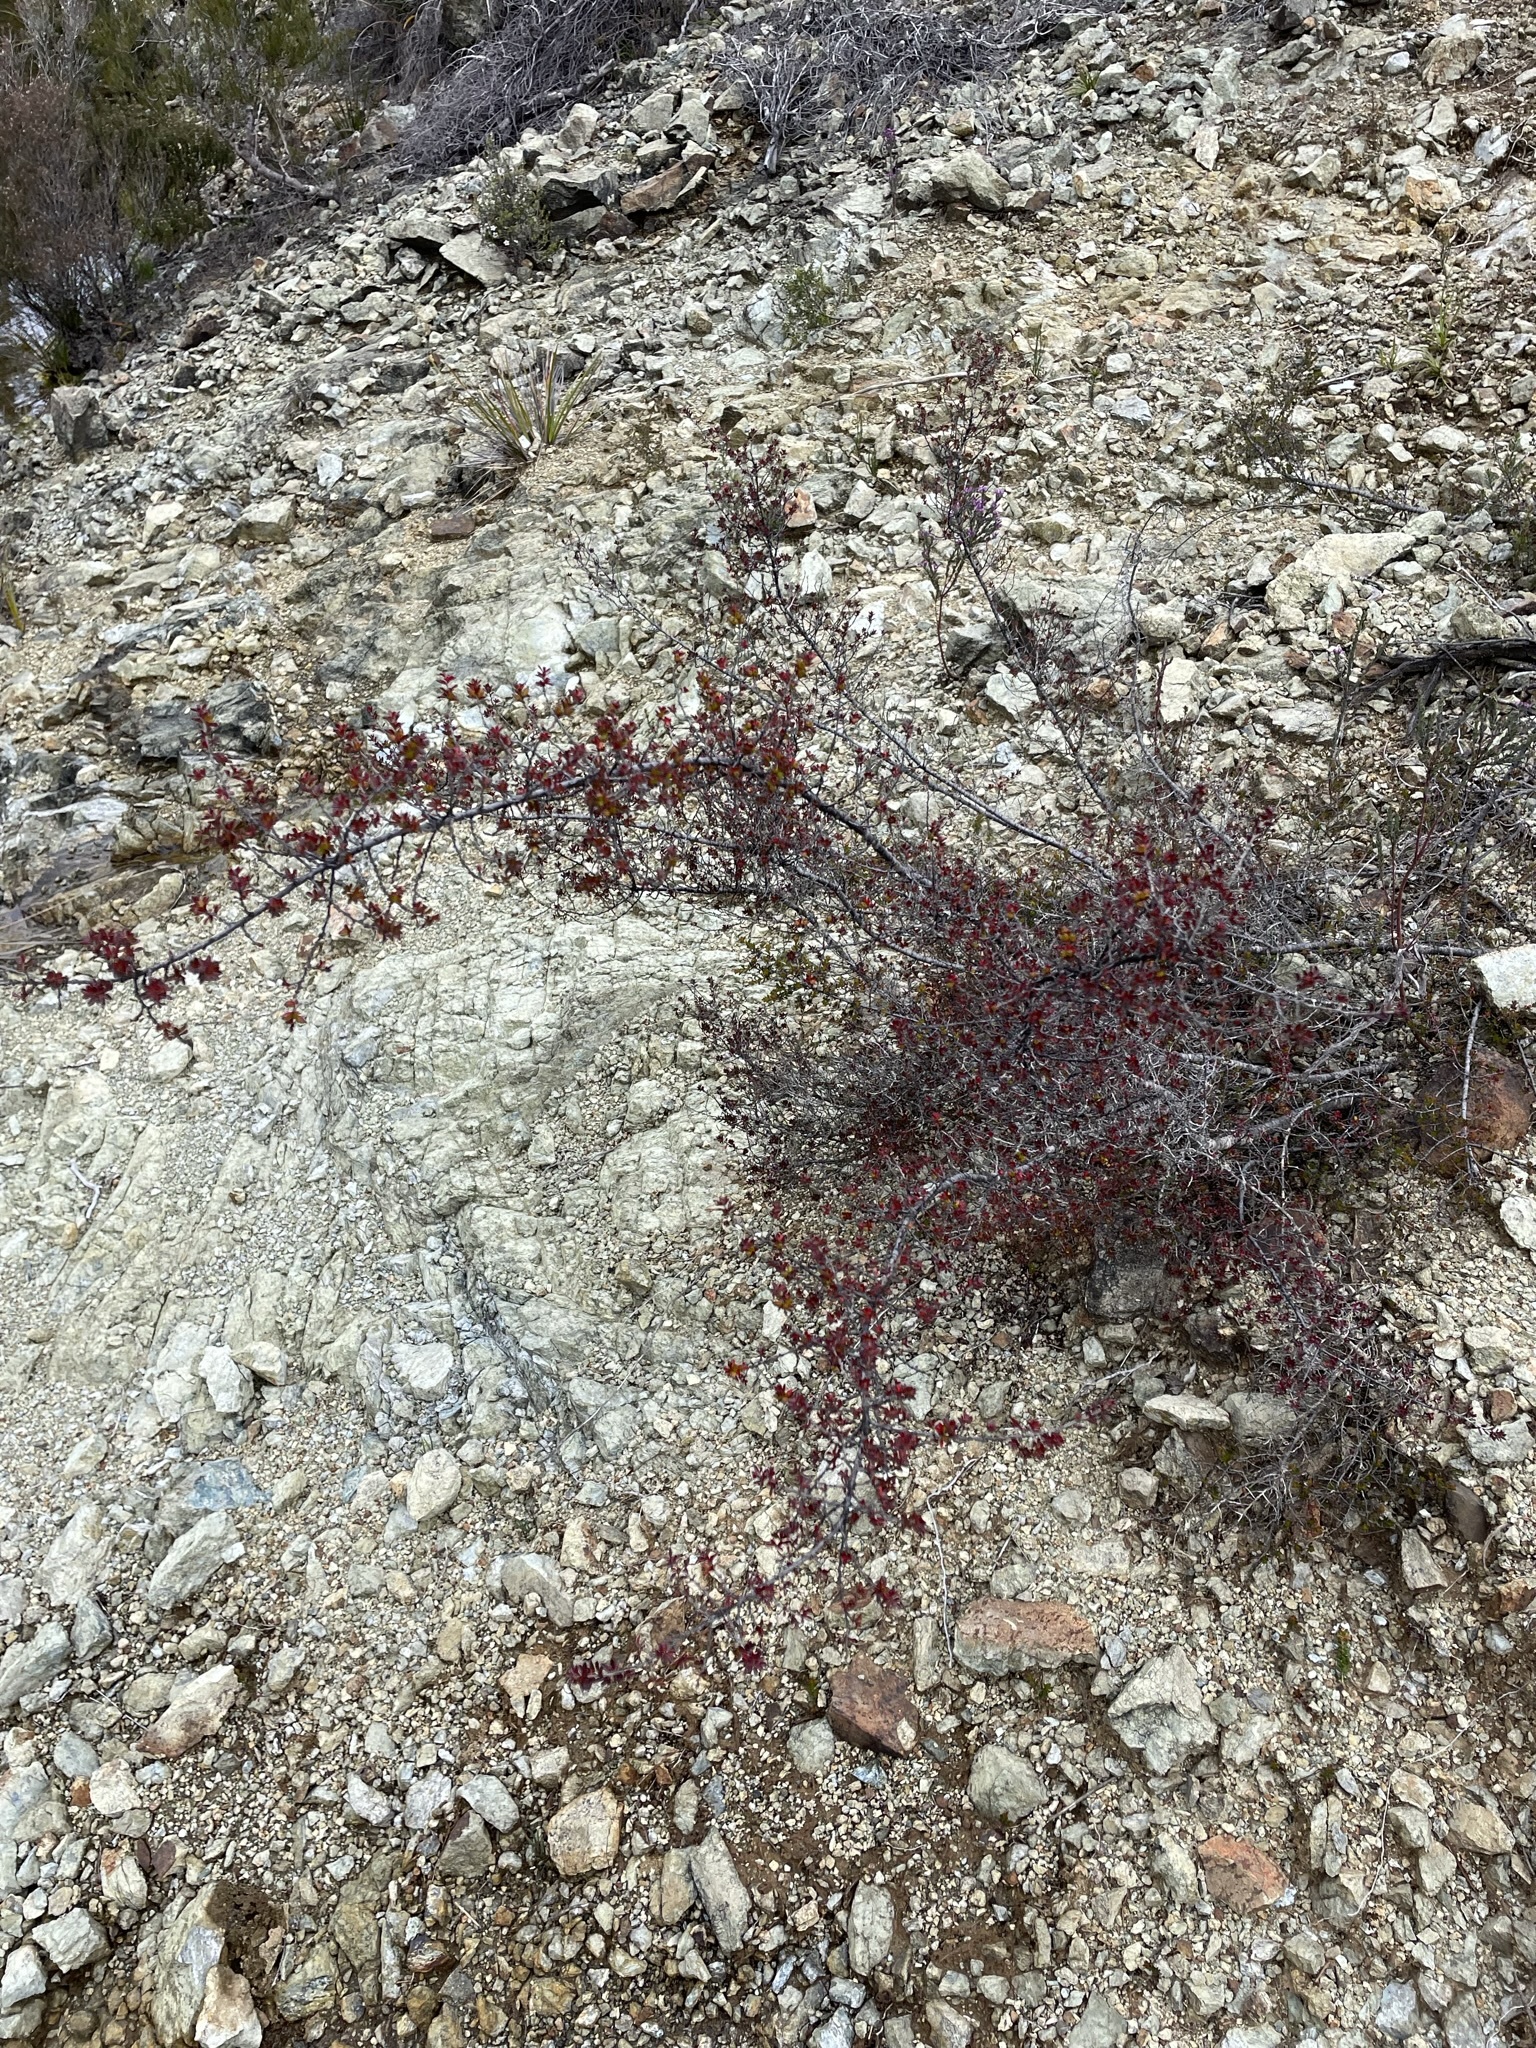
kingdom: Plantae
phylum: Tracheophyta
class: Magnoliopsida
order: Malpighiales
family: Picrodendraceae
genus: Micrantheum
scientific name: Micrantheum serpentinum
